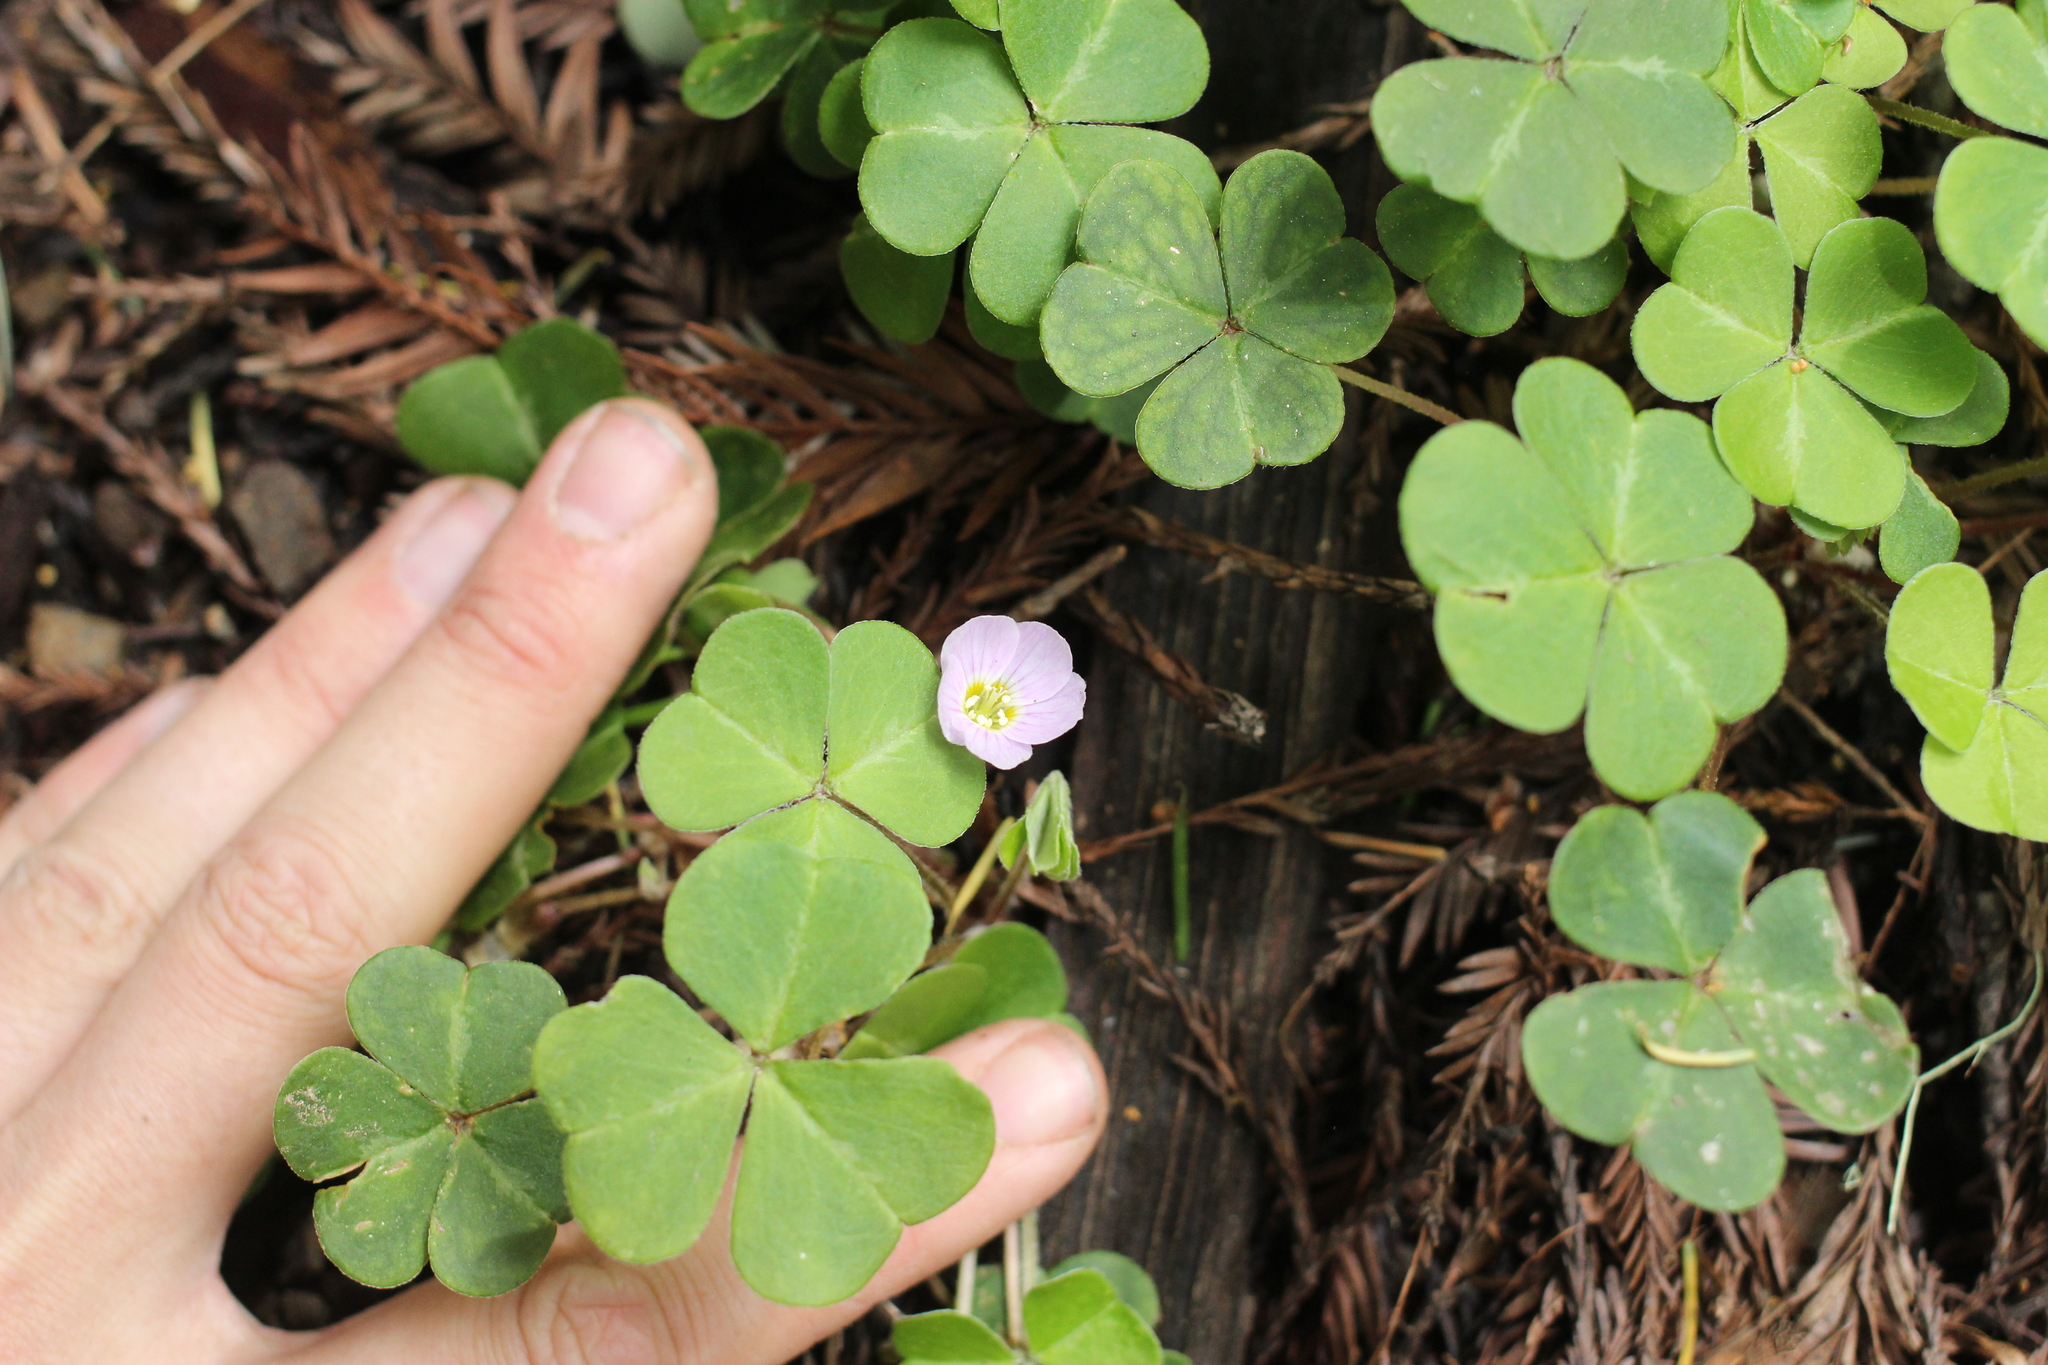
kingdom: Plantae
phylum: Tracheophyta
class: Magnoliopsida
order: Oxalidales
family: Oxalidaceae
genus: Oxalis
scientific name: Oxalis oregana
